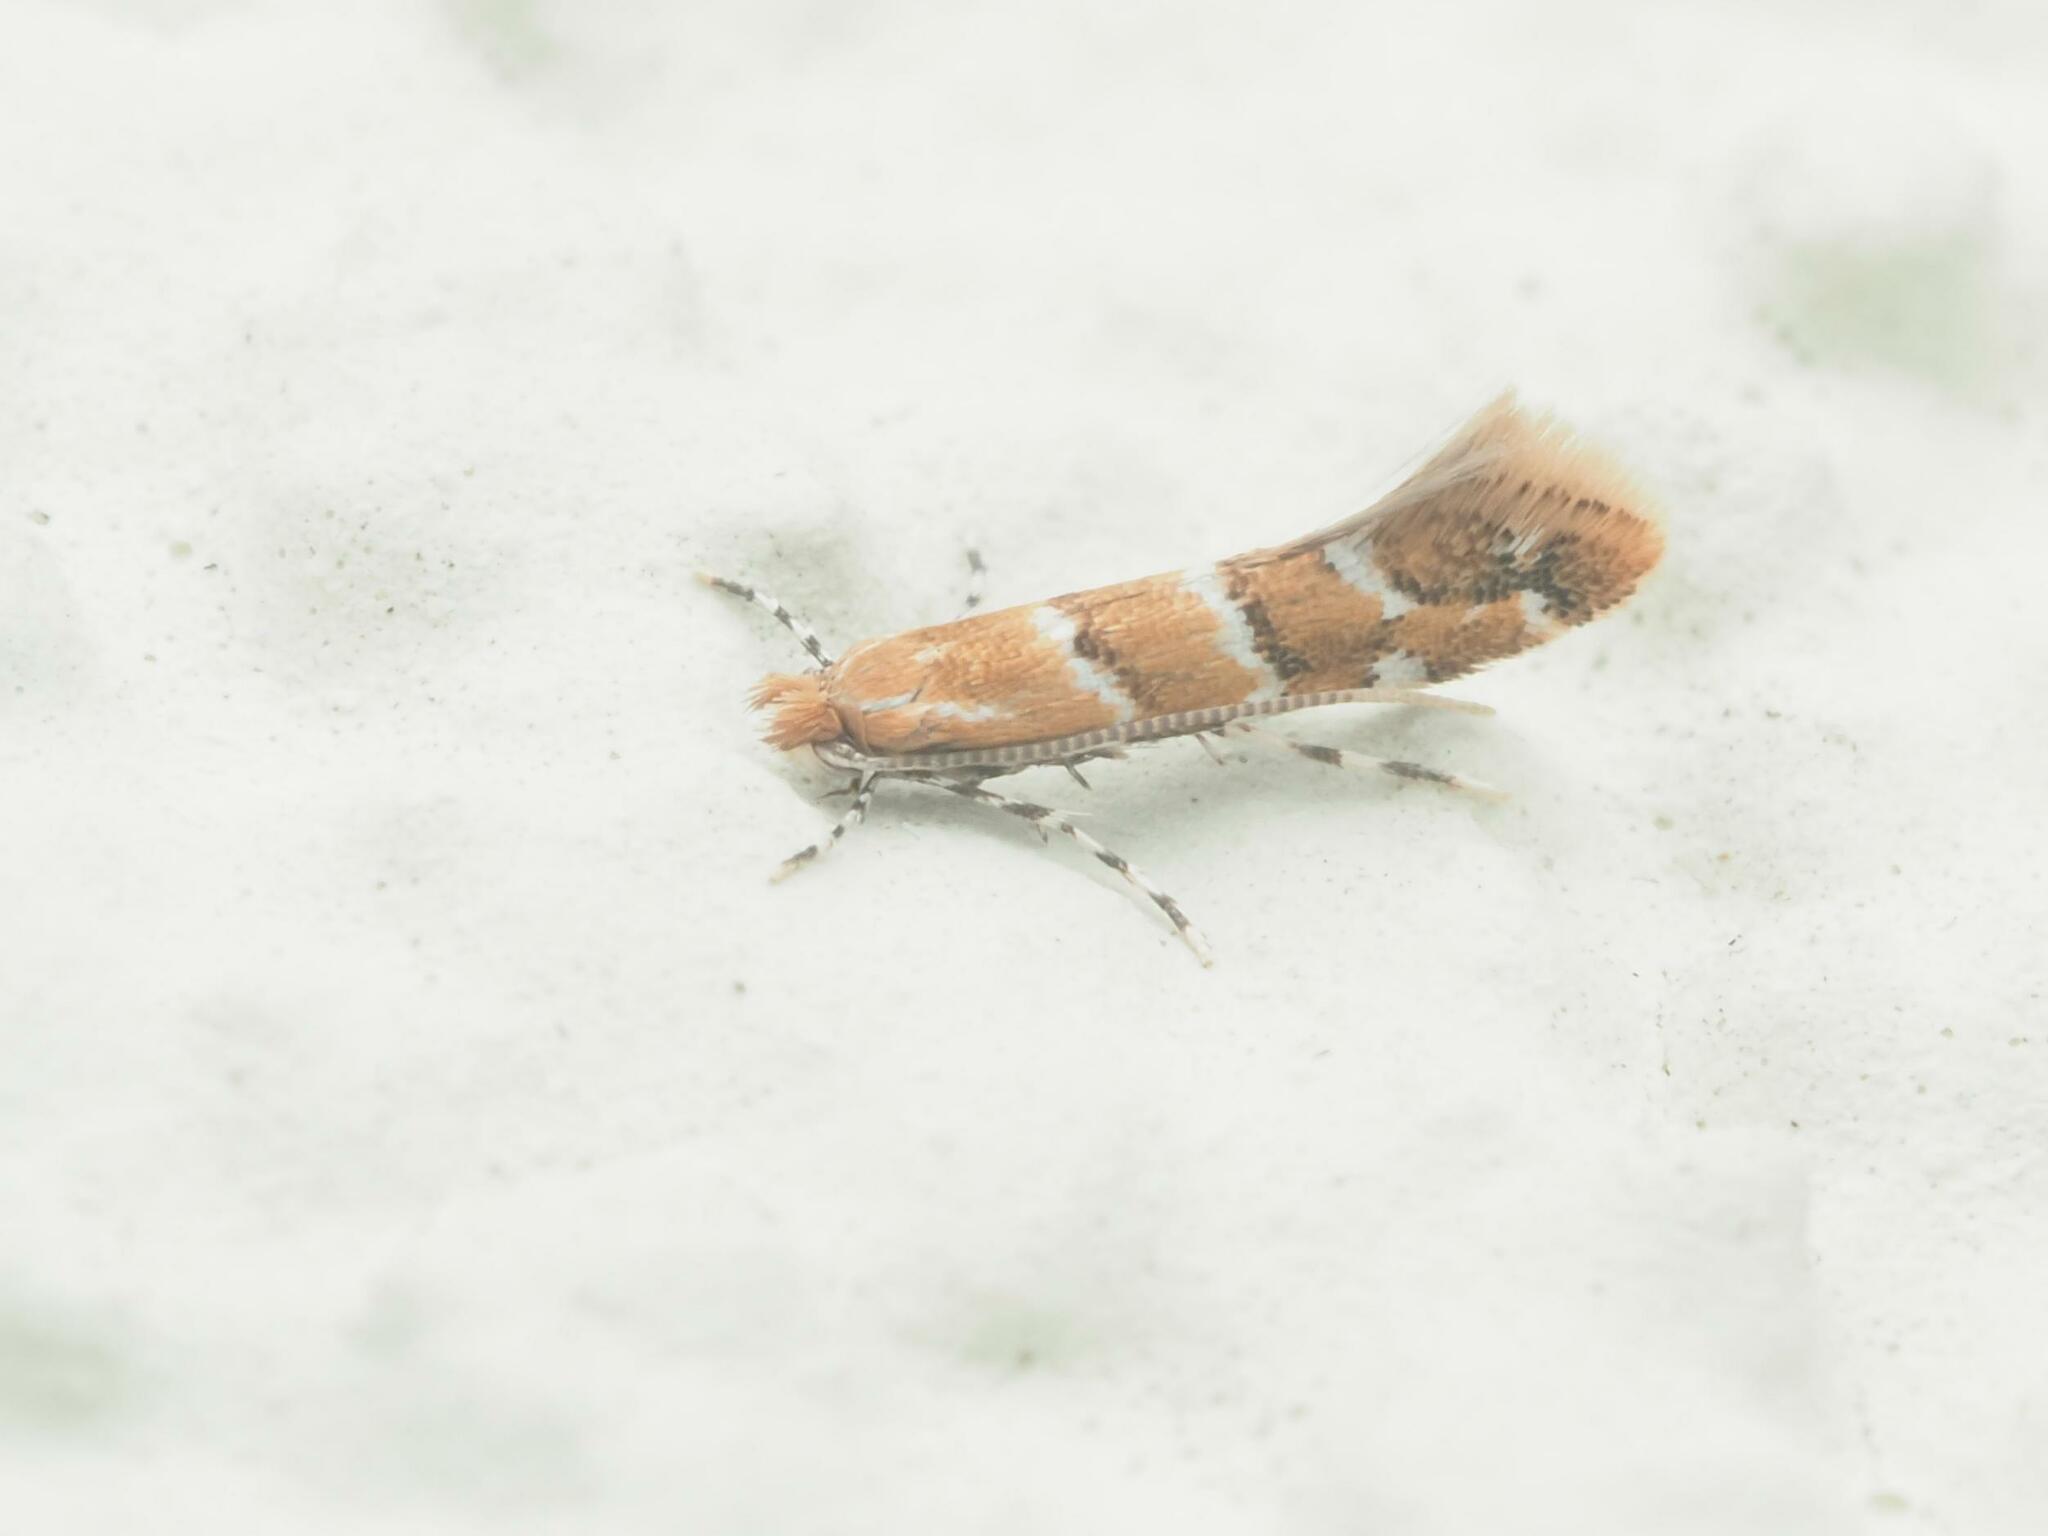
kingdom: Animalia
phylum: Arthropoda
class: Insecta
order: Lepidoptera
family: Gracillariidae
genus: Cameraria
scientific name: Cameraria ohridella
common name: Horse-chestnut leaf-miner
